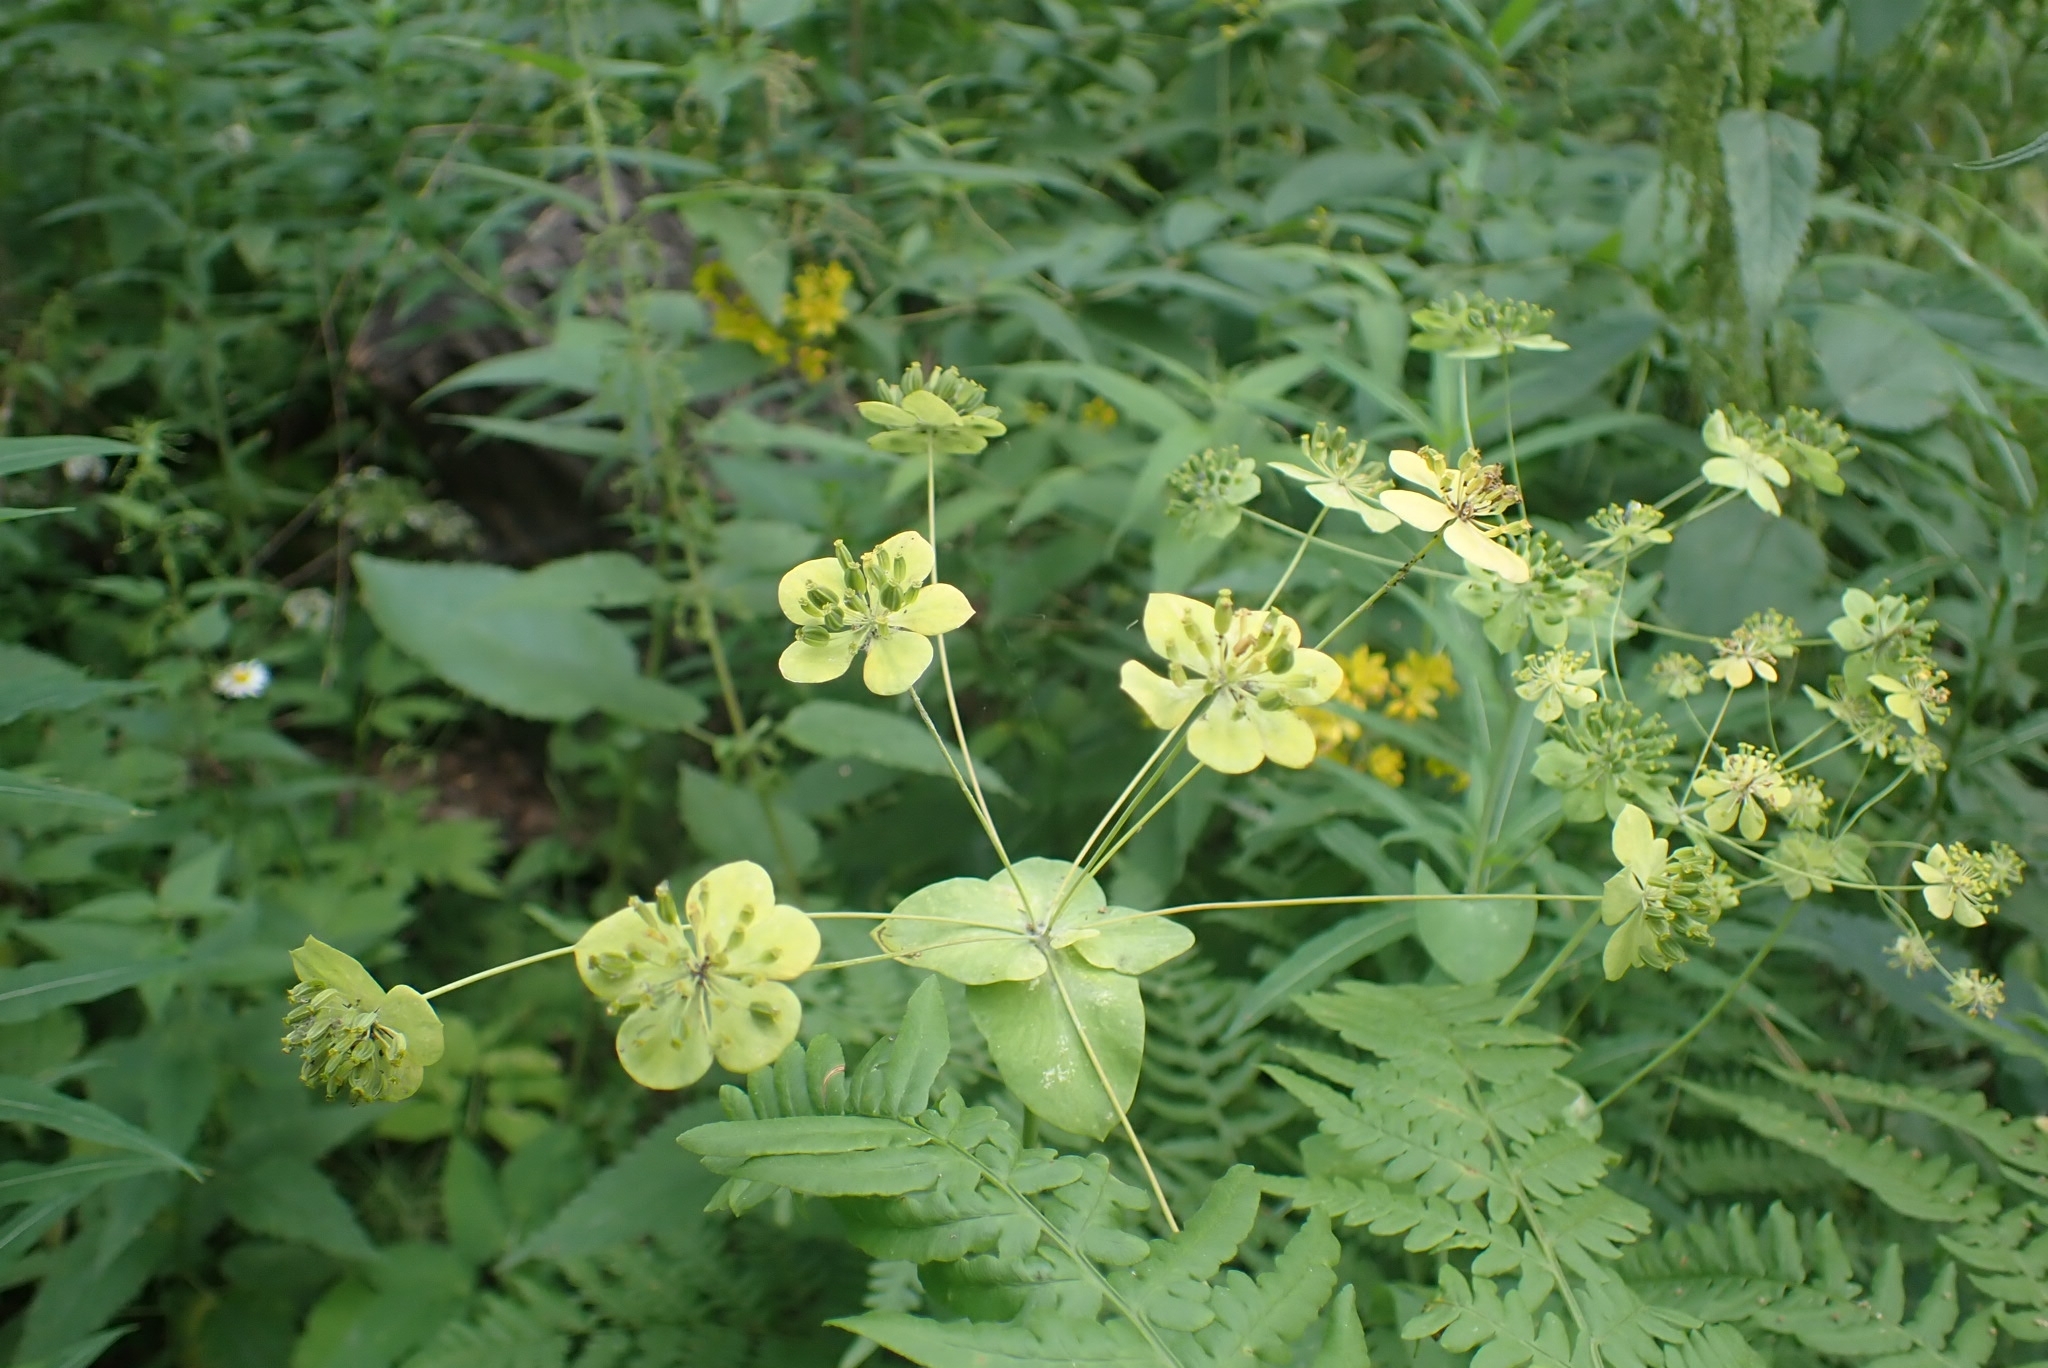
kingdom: Plantae
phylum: Tracheophyta
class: Magnoliopsida
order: Apiales
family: Apiaceae
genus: Bupleurum
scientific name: Bupleurum aureum
